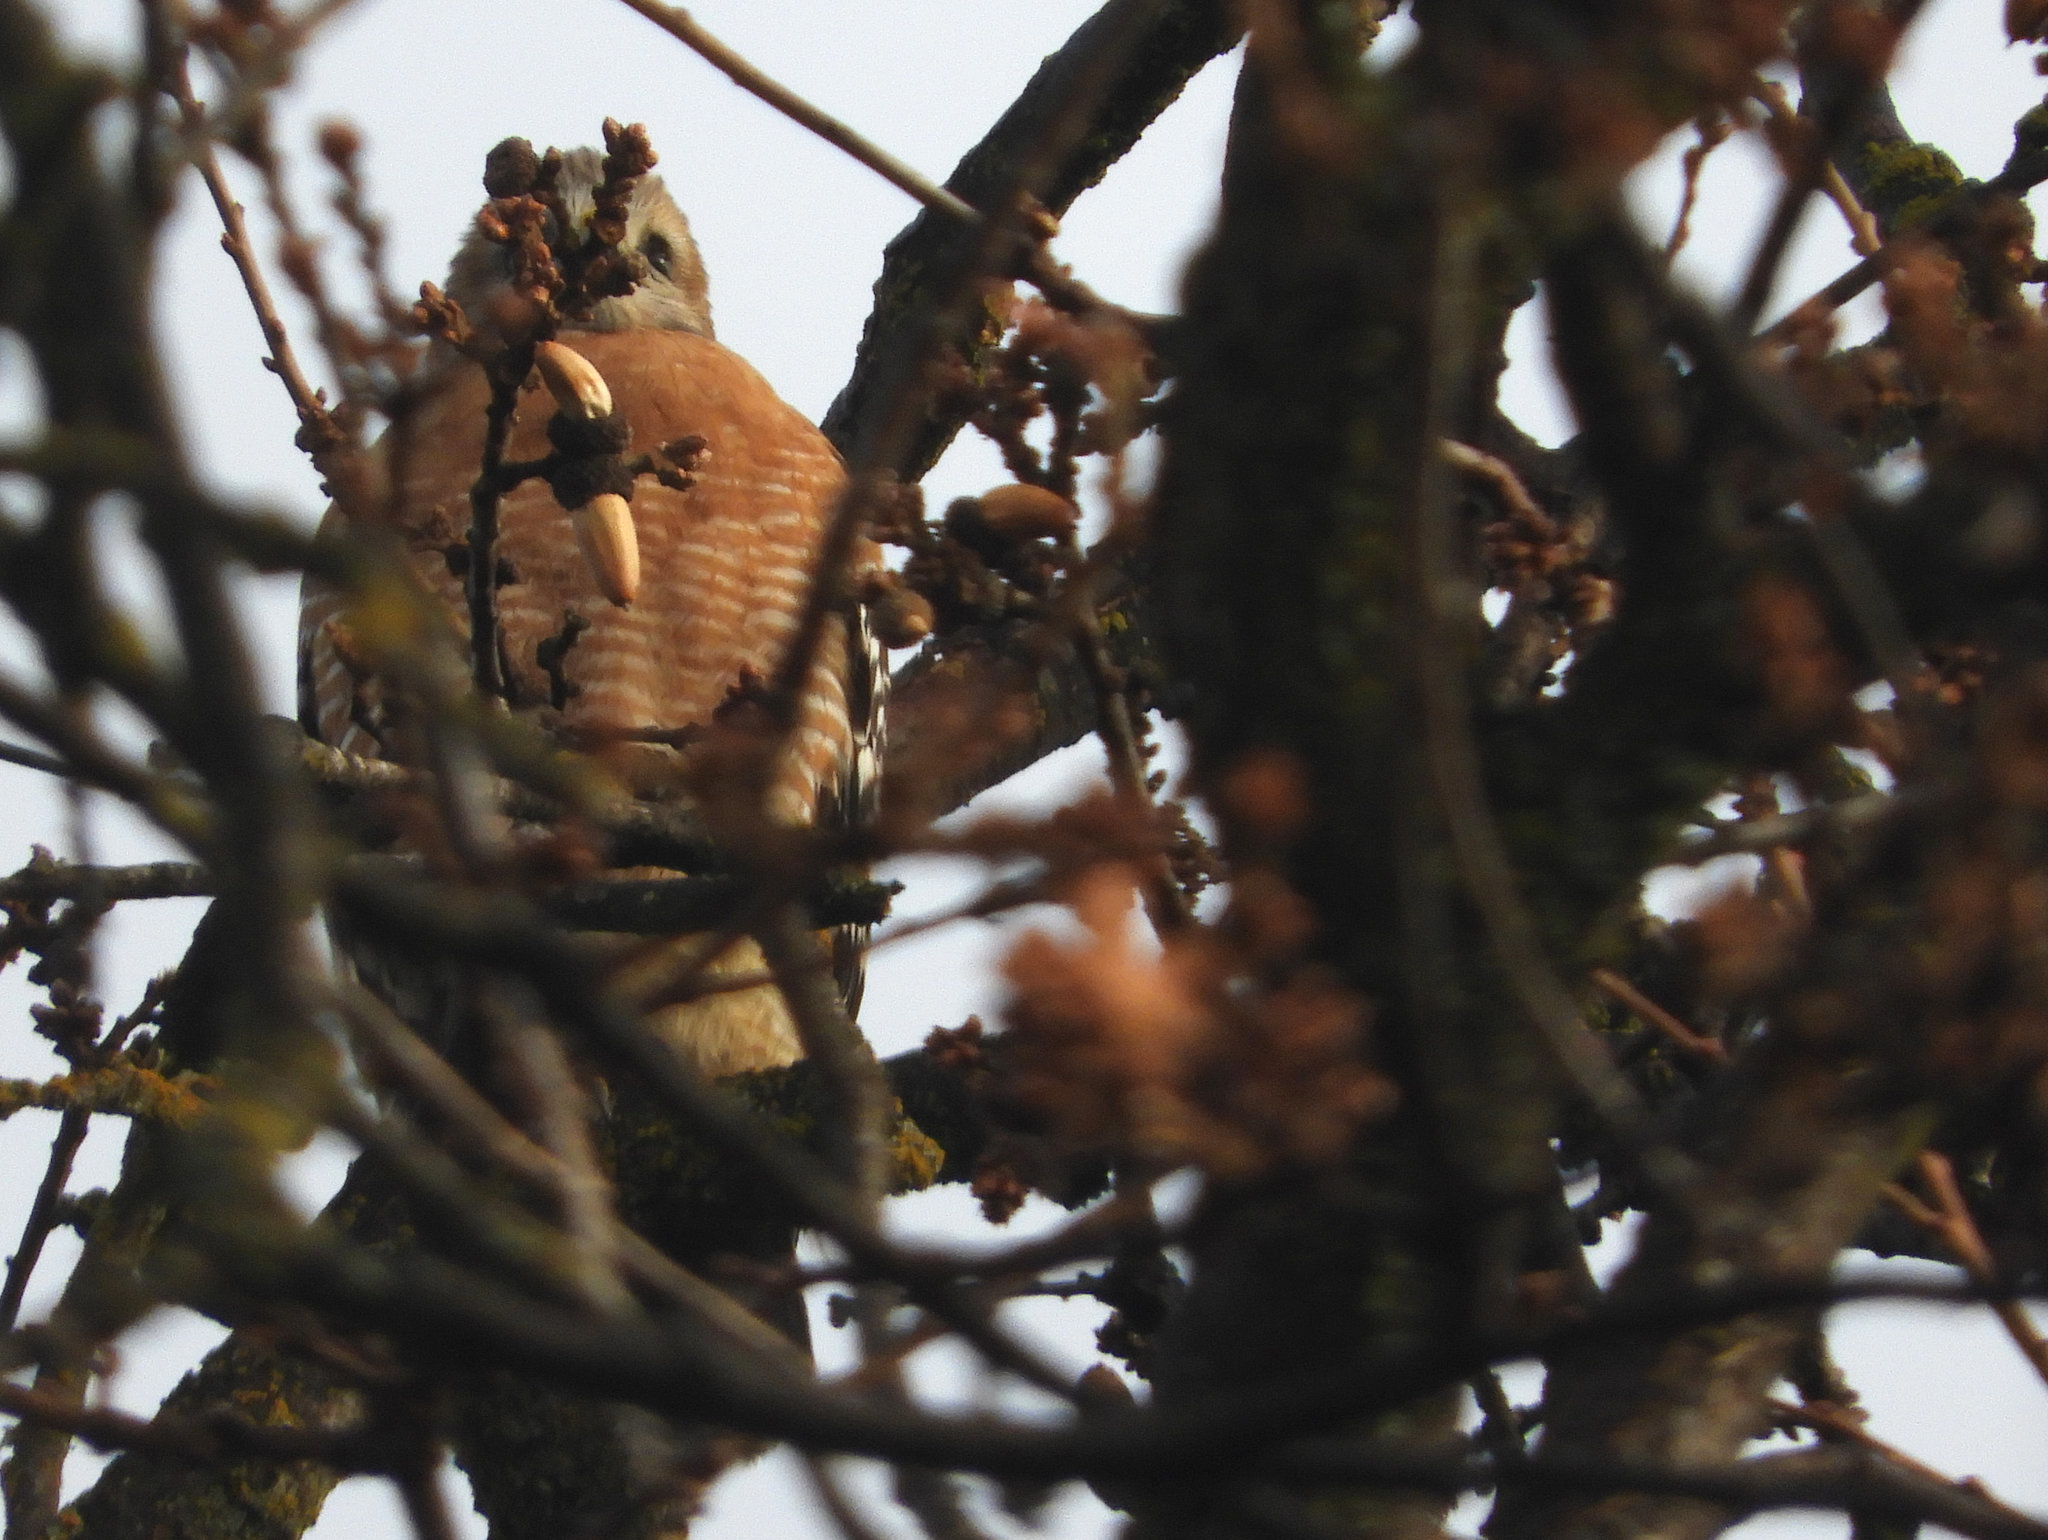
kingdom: Animalia
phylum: Chordata
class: Aves
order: Accipitriformes
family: Accipitridae
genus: Buteo
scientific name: Buteo lineatus
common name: Red-shouldered hawk
